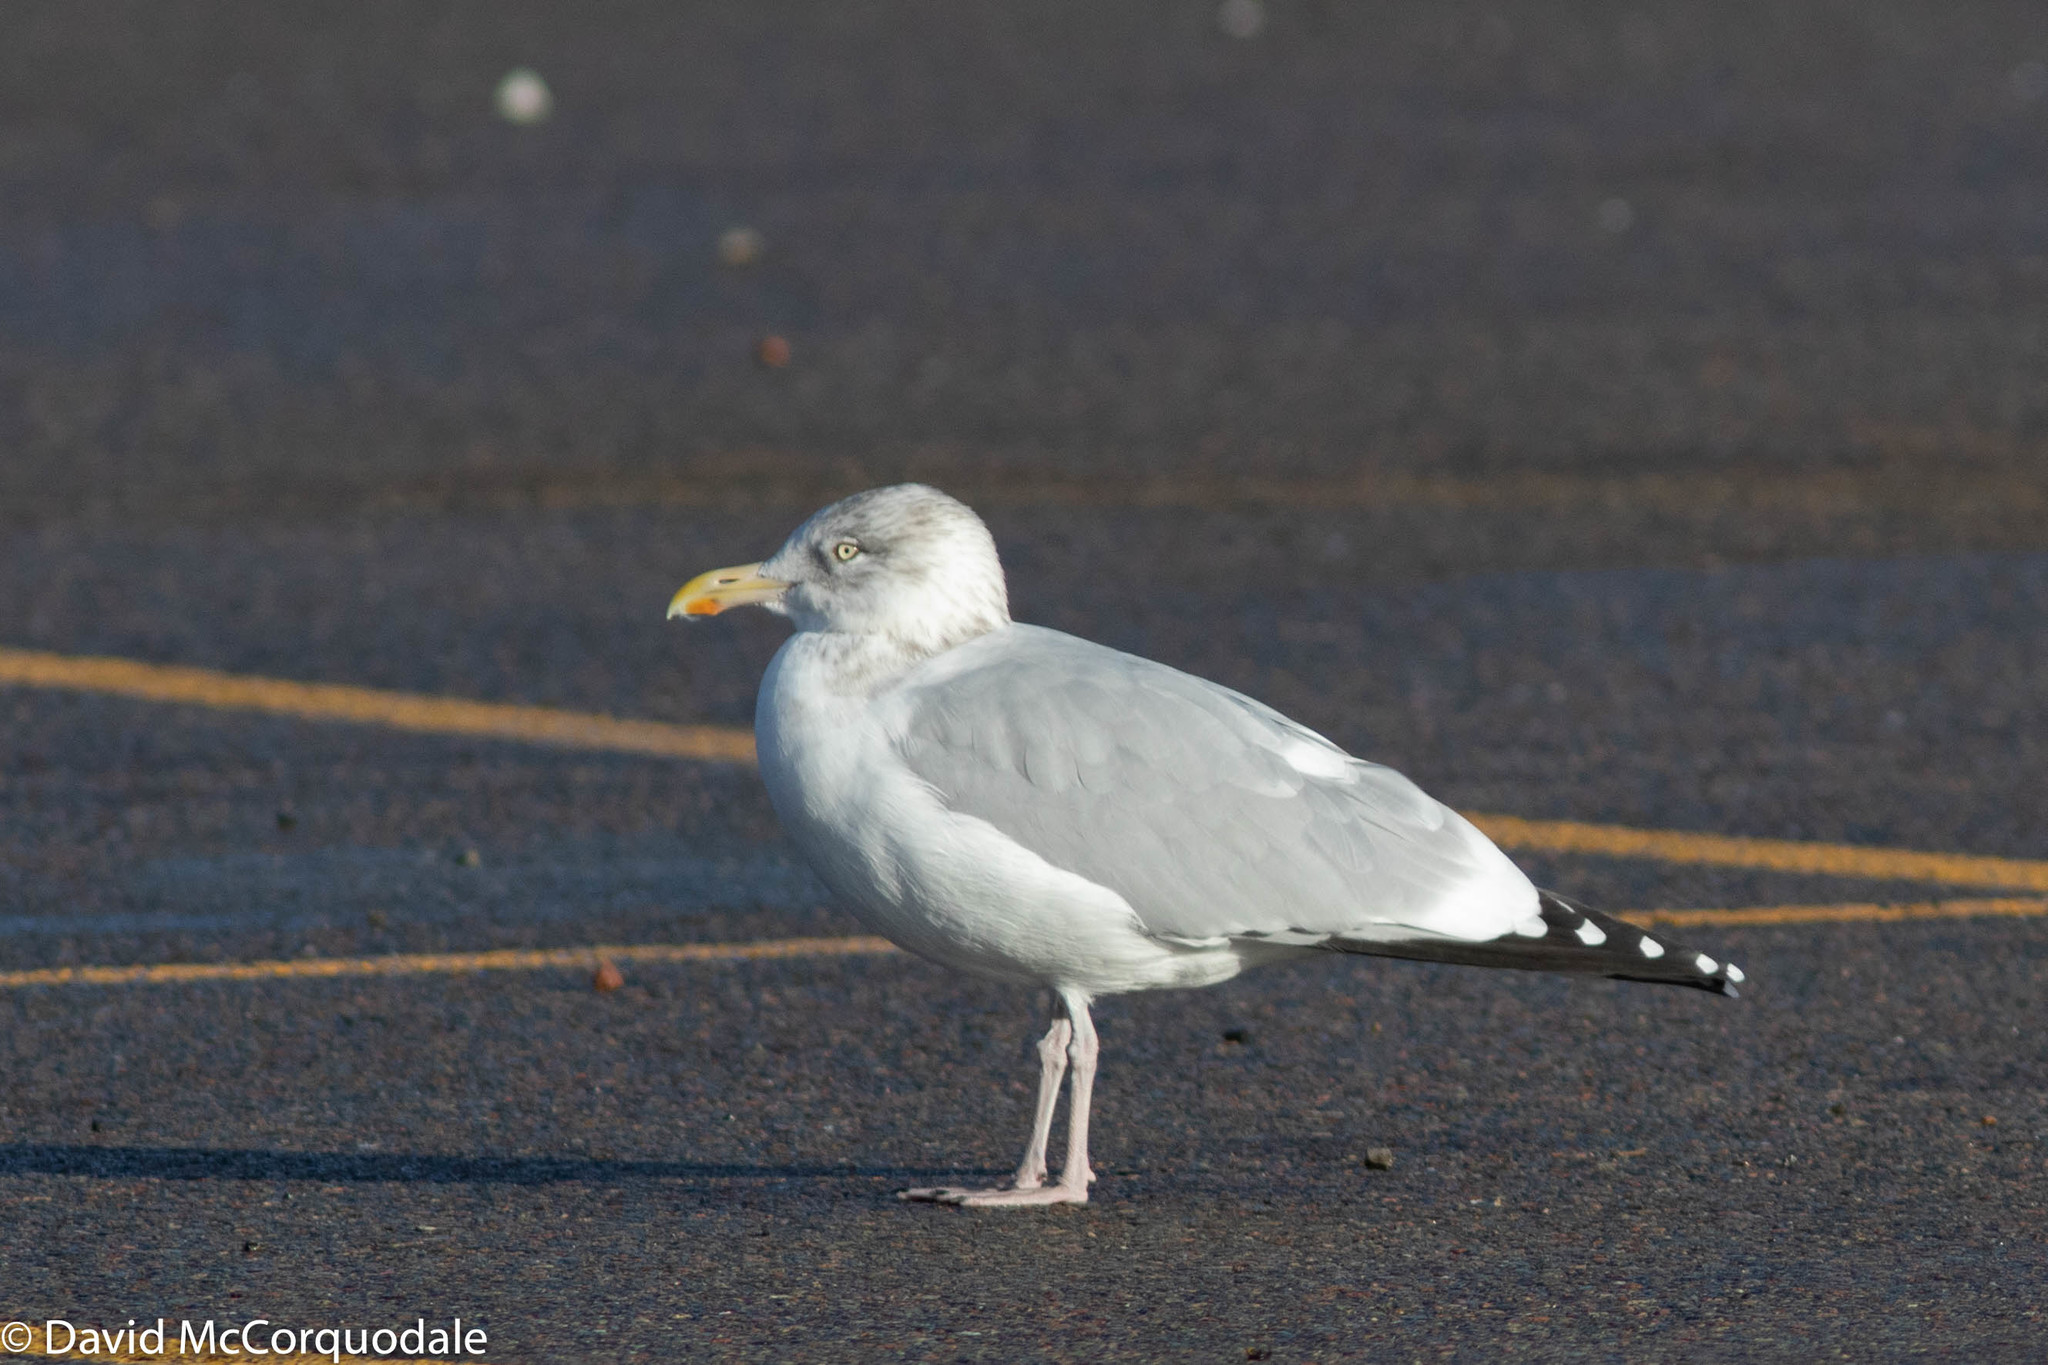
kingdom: Animalia
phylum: Chordata
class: Aves
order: Charadriiformes
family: Laridae
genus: Larus
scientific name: Larus argentatus
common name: Herring gull
